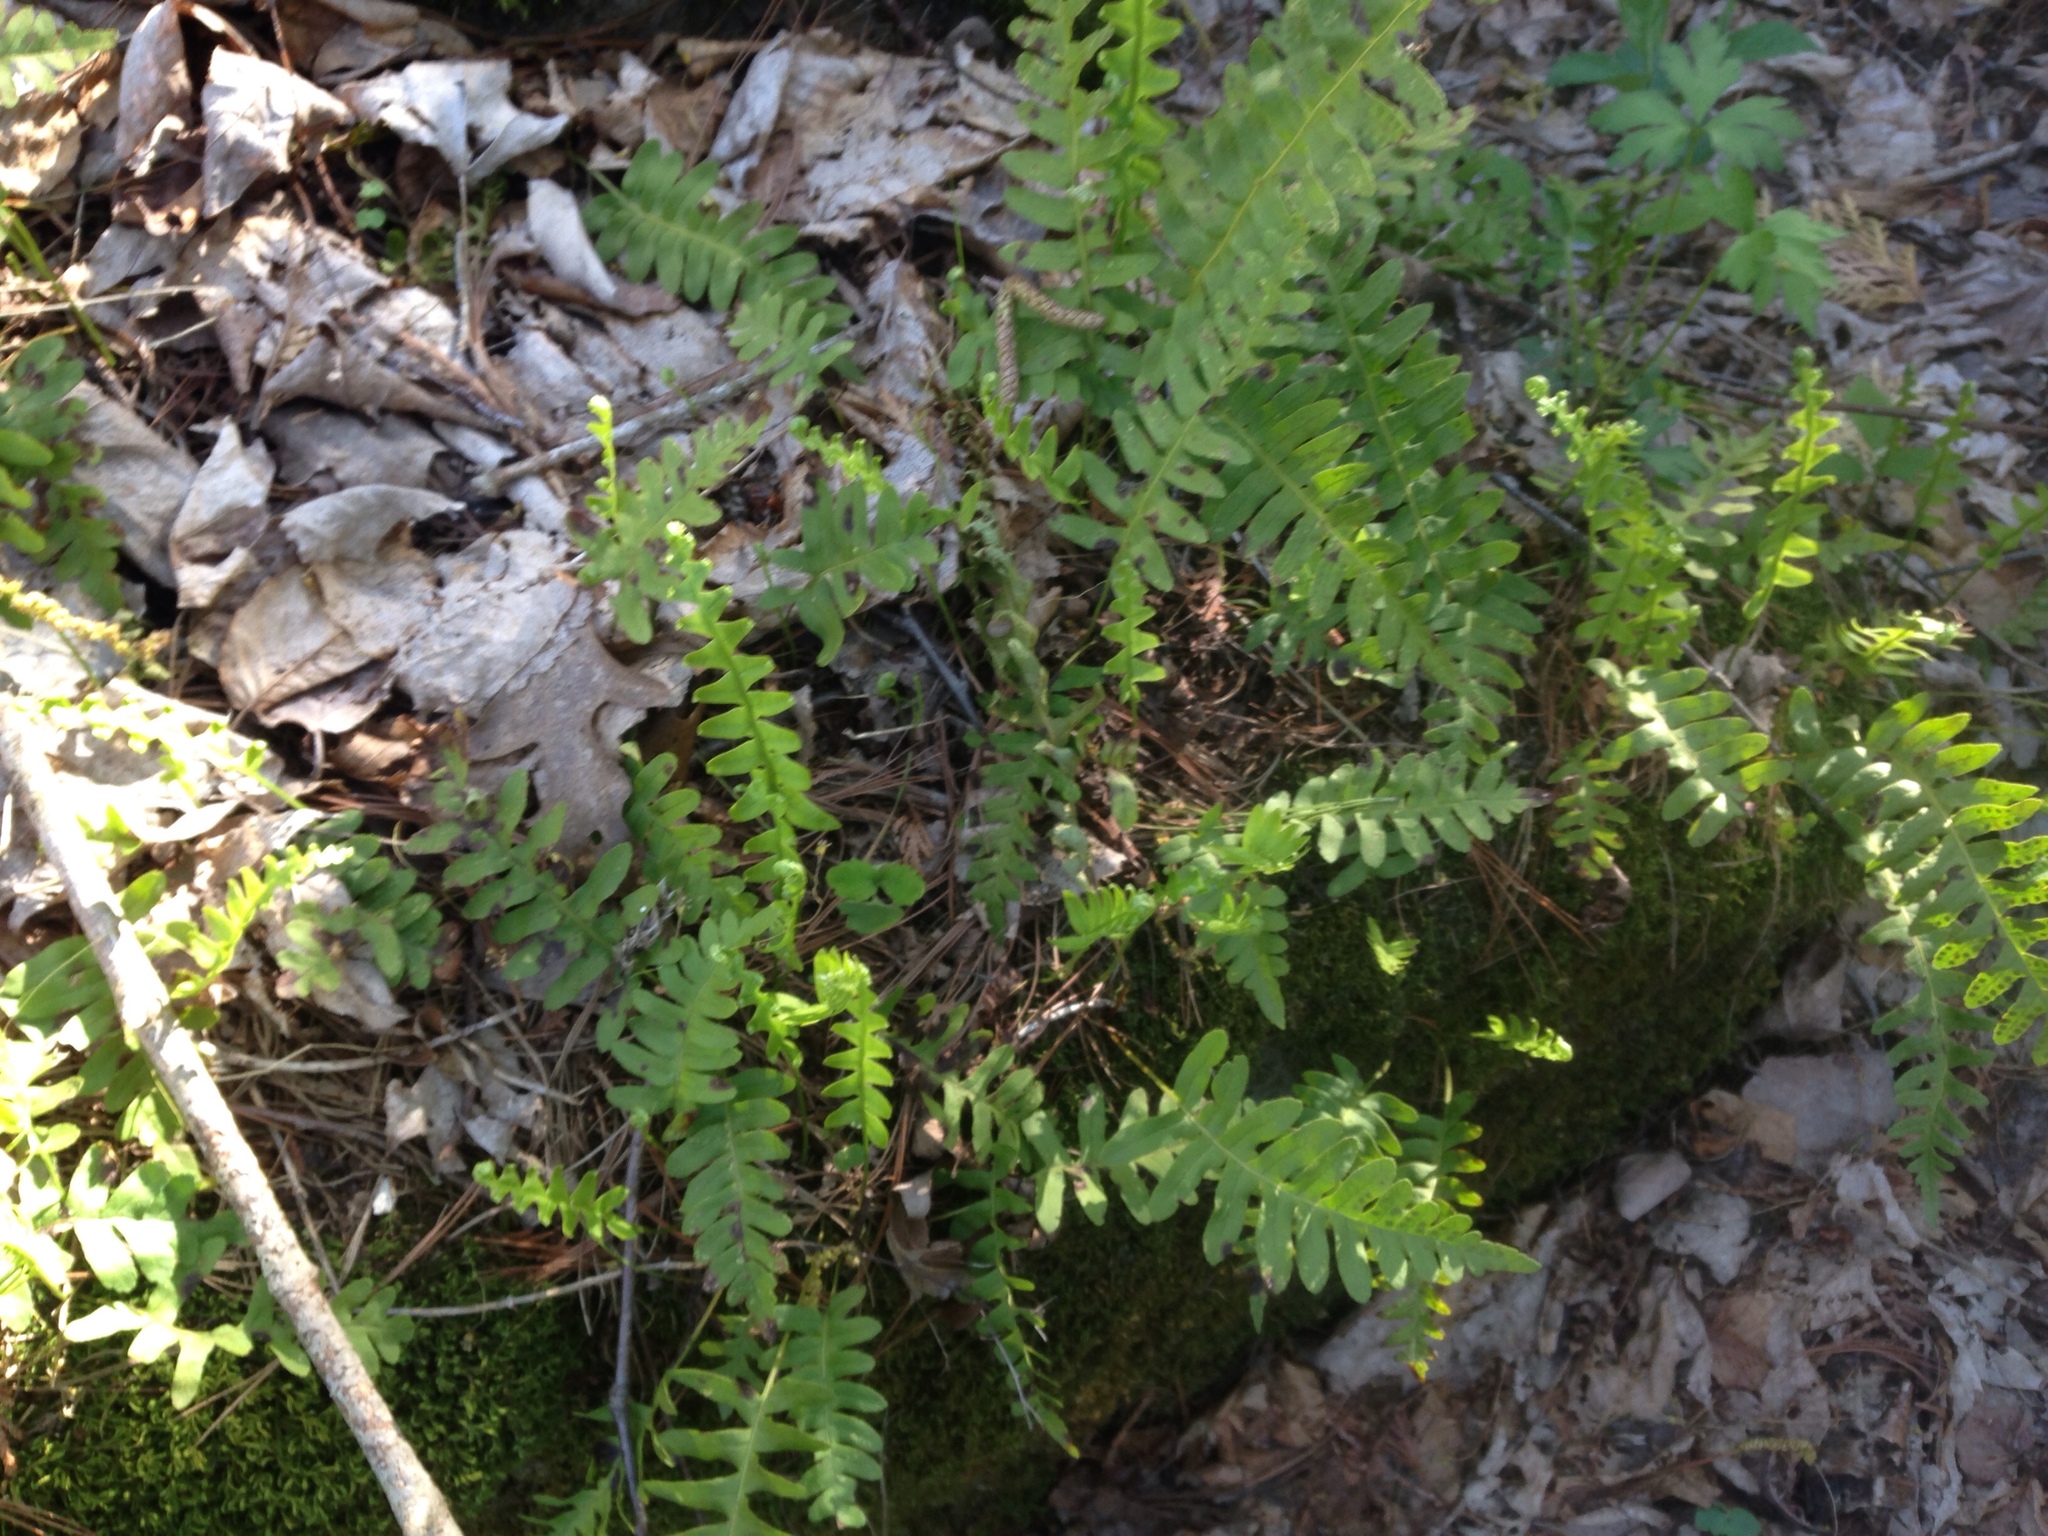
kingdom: Plantae
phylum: Tracheophyta
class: Polypodiopsida
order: Polypodiales
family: Polypodiaceae
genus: Polypodium
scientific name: Polypodium virginianum
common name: American wall fern
